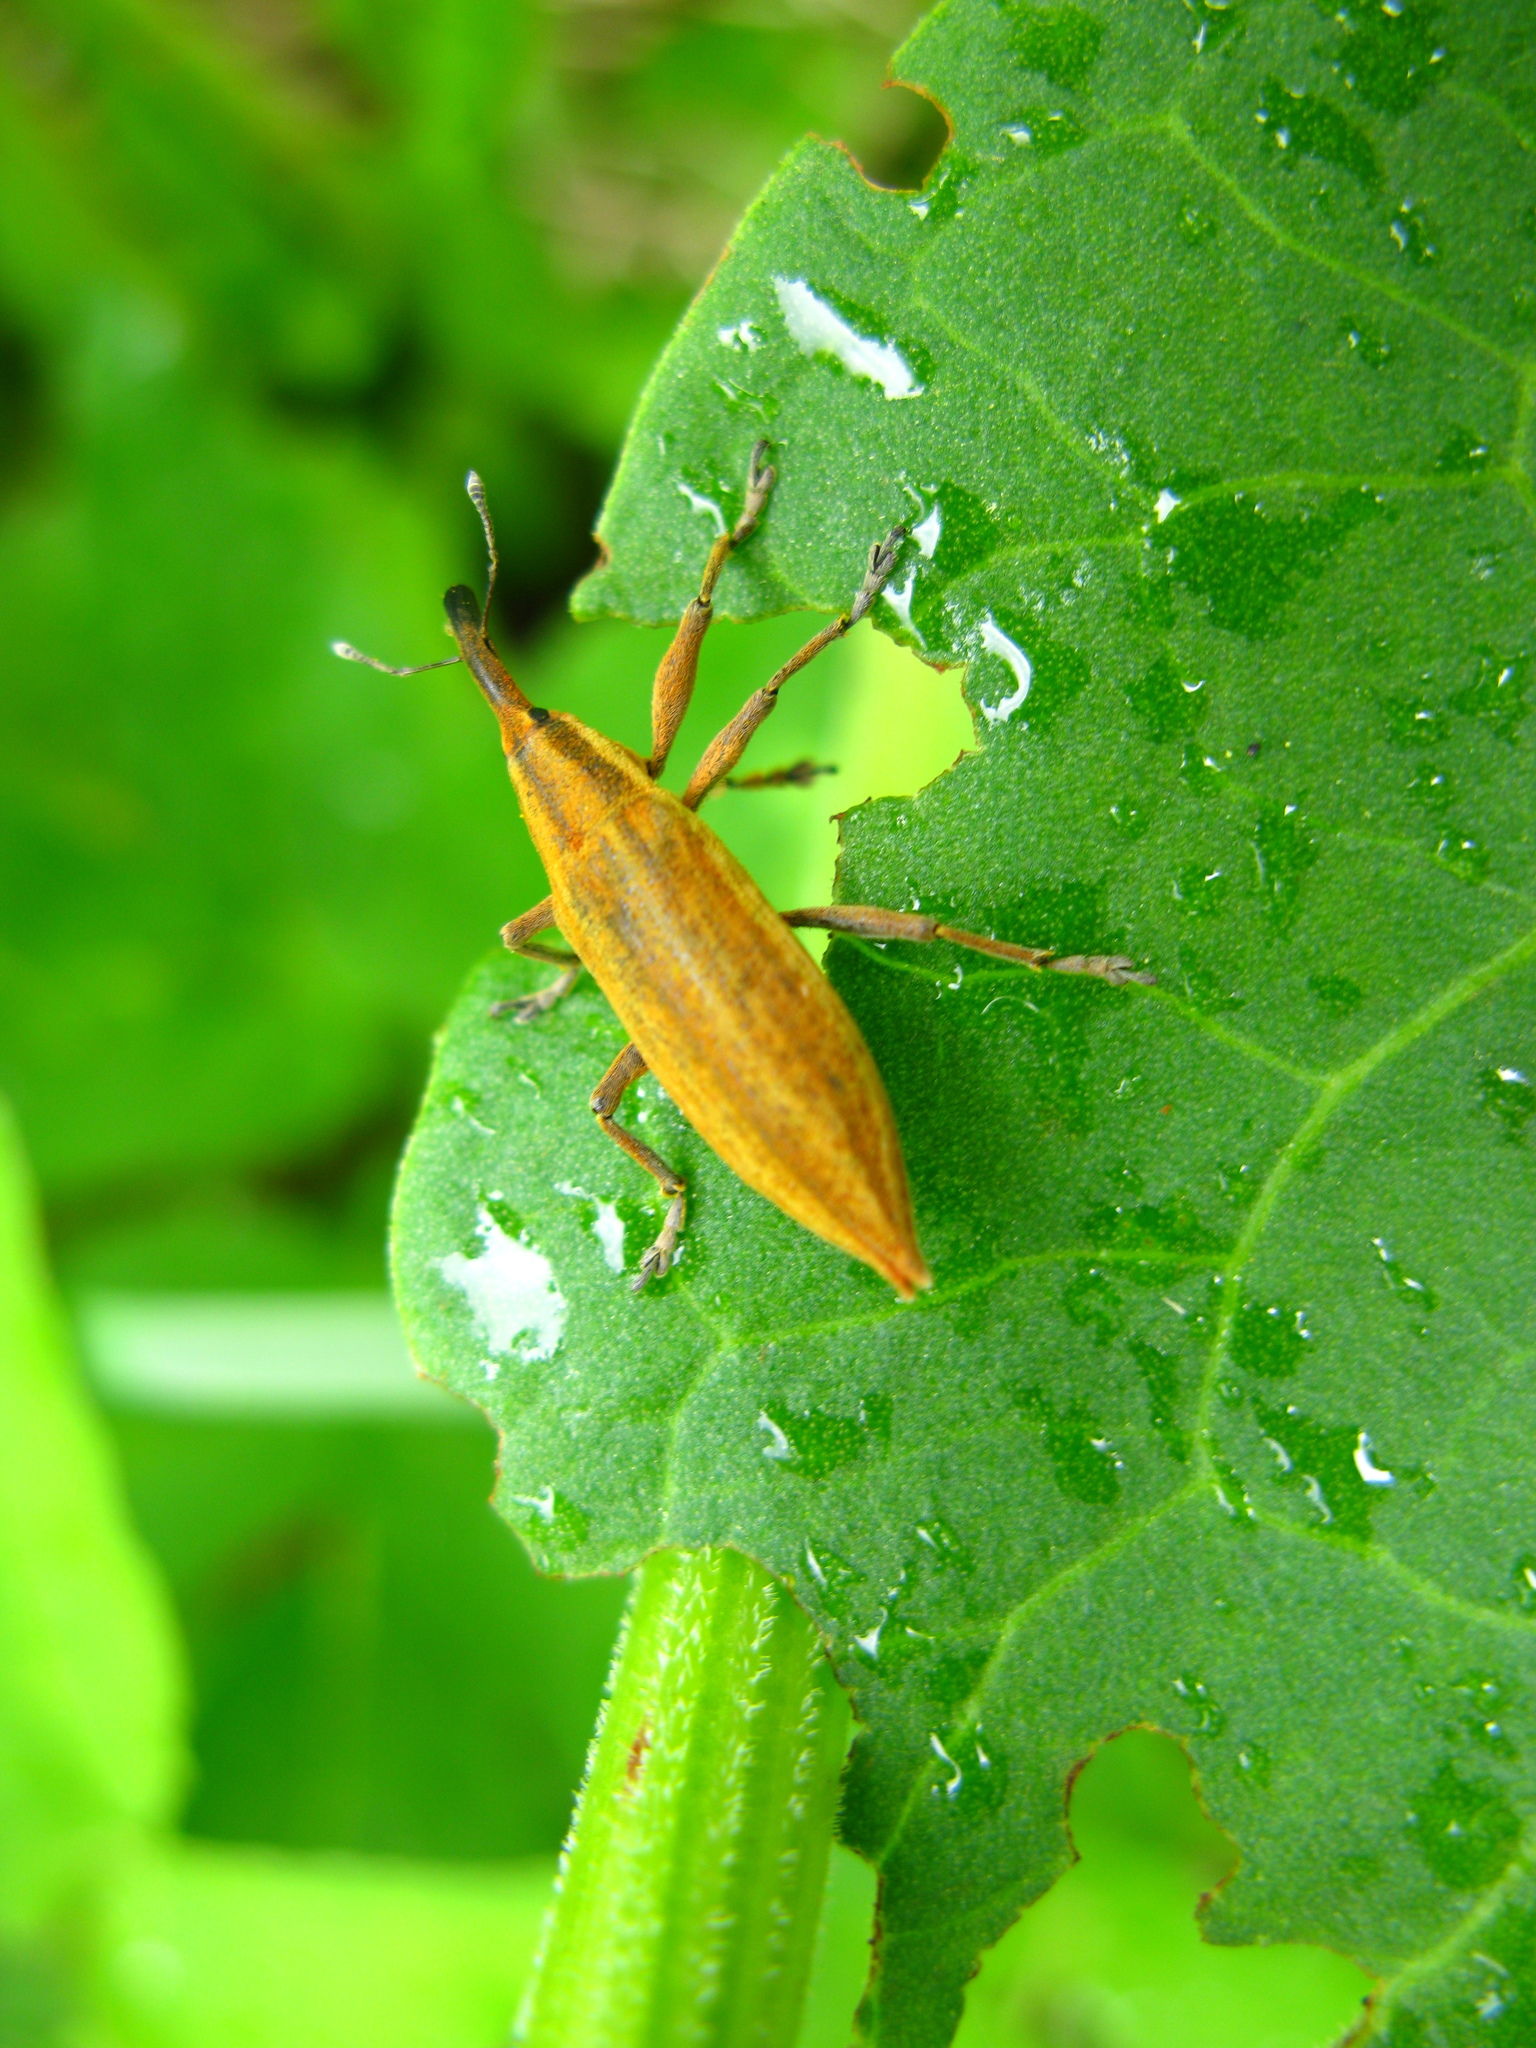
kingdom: Animalia
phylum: Arthropoda
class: Insecta
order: Coleoptera
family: Curculionidae
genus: Lixus
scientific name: Lixus iridis
